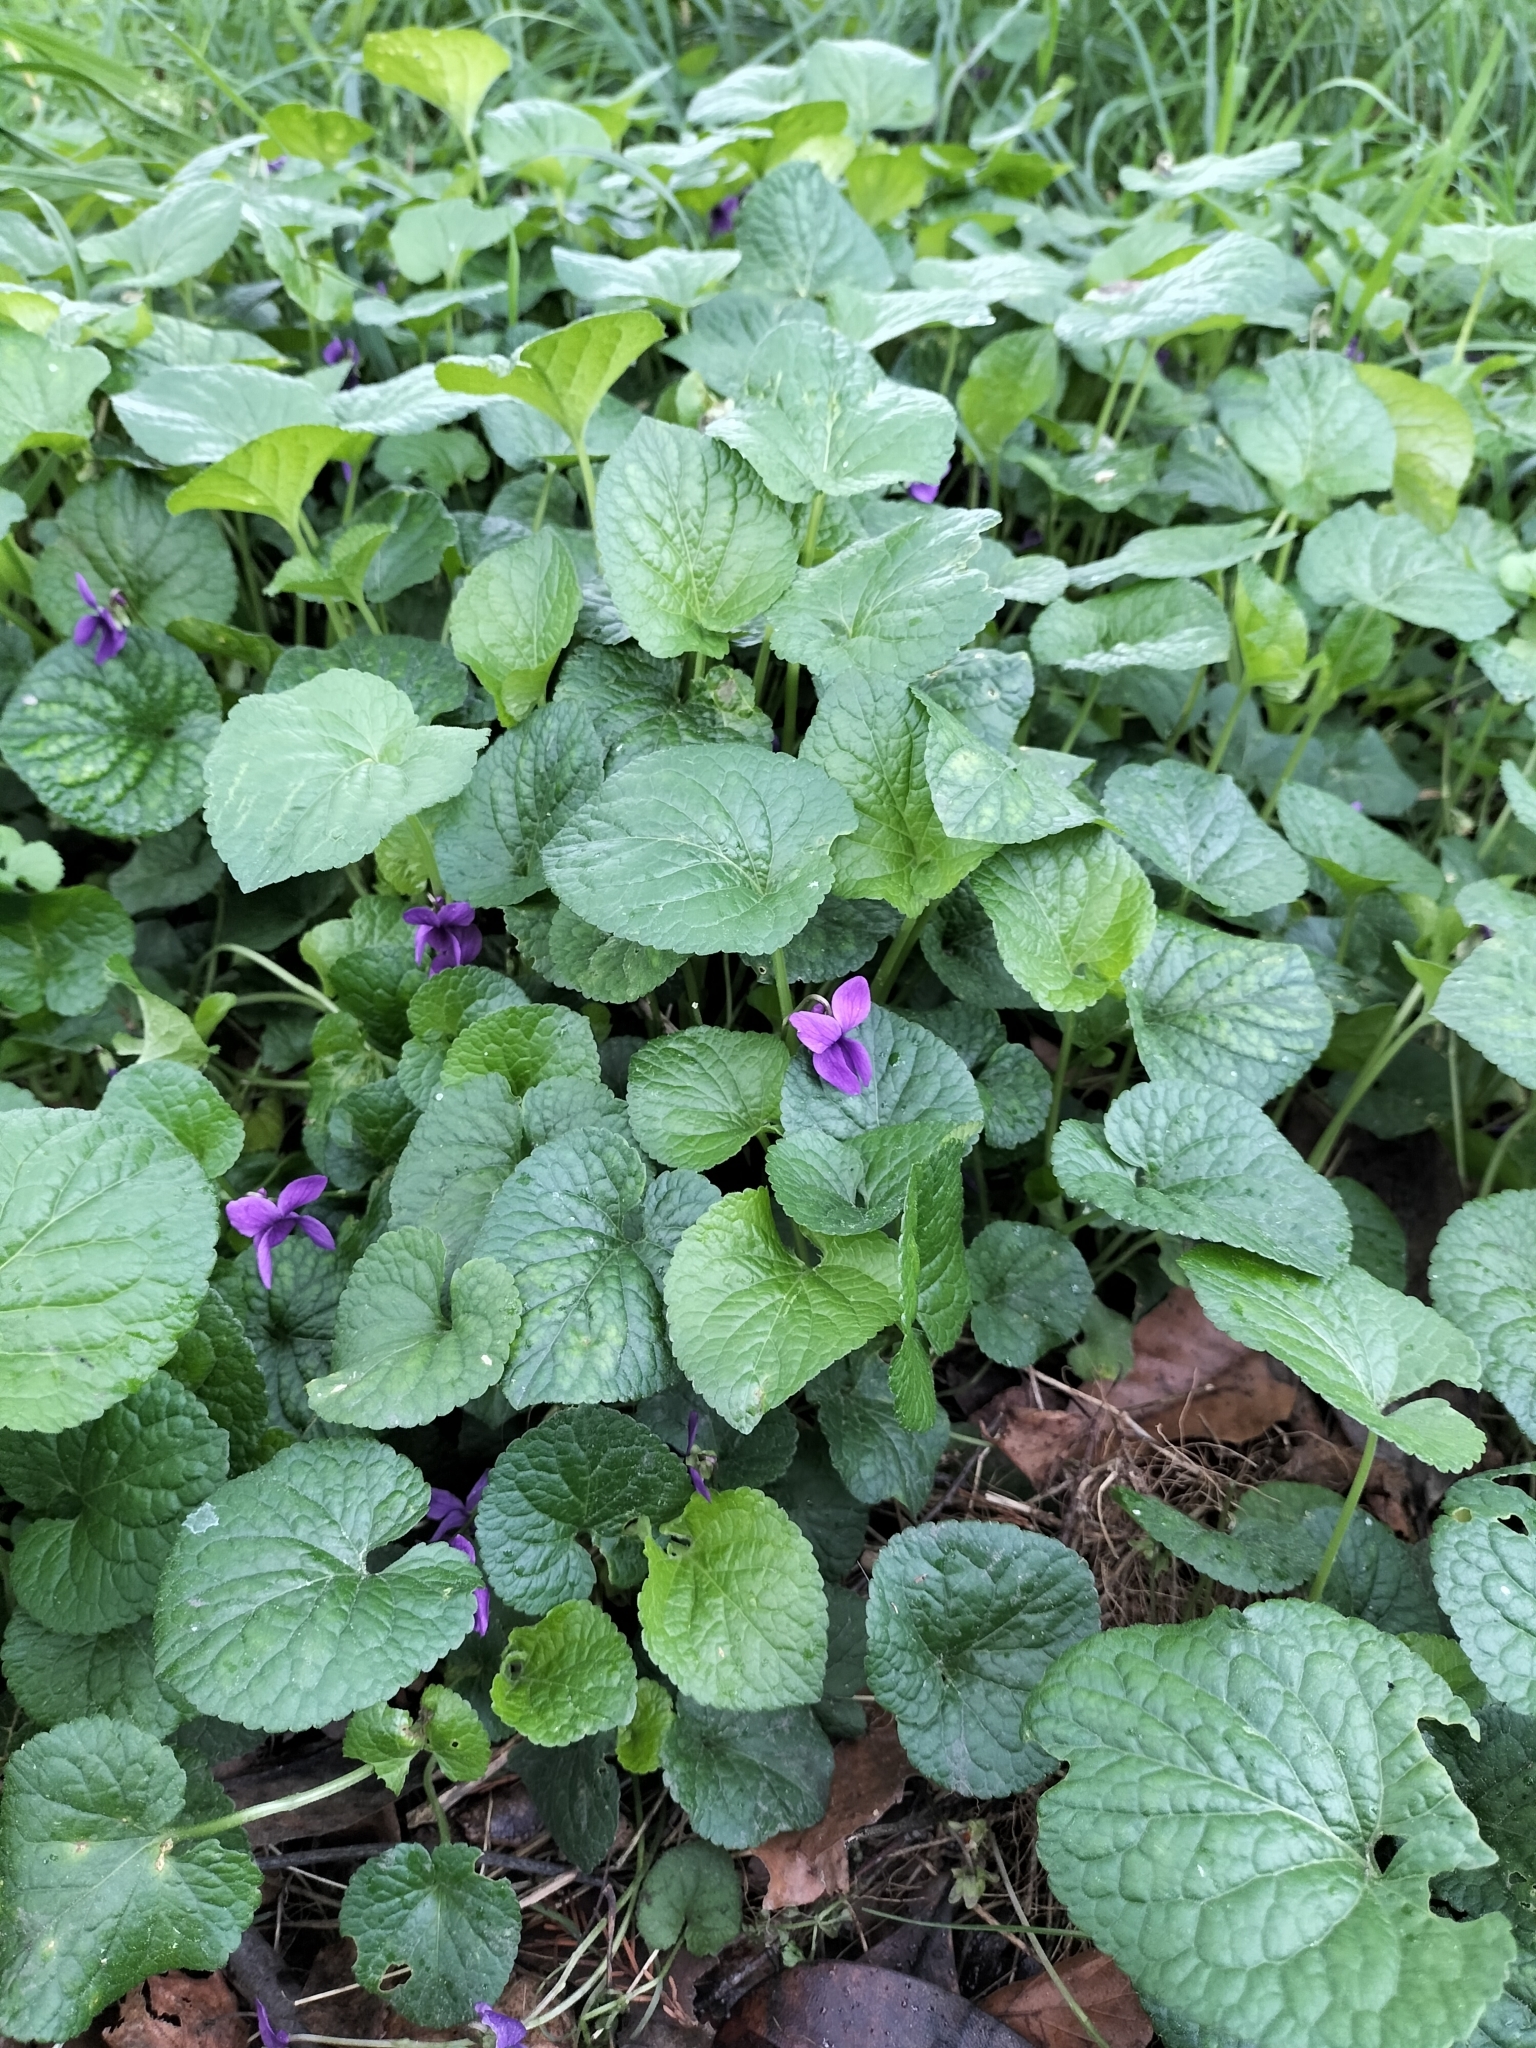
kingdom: Plantae
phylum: Tracheophyta
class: Magnoliopsida
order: Malpighiales
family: Violaceae
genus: Viola
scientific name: Viola odorata
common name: Sweet violet
